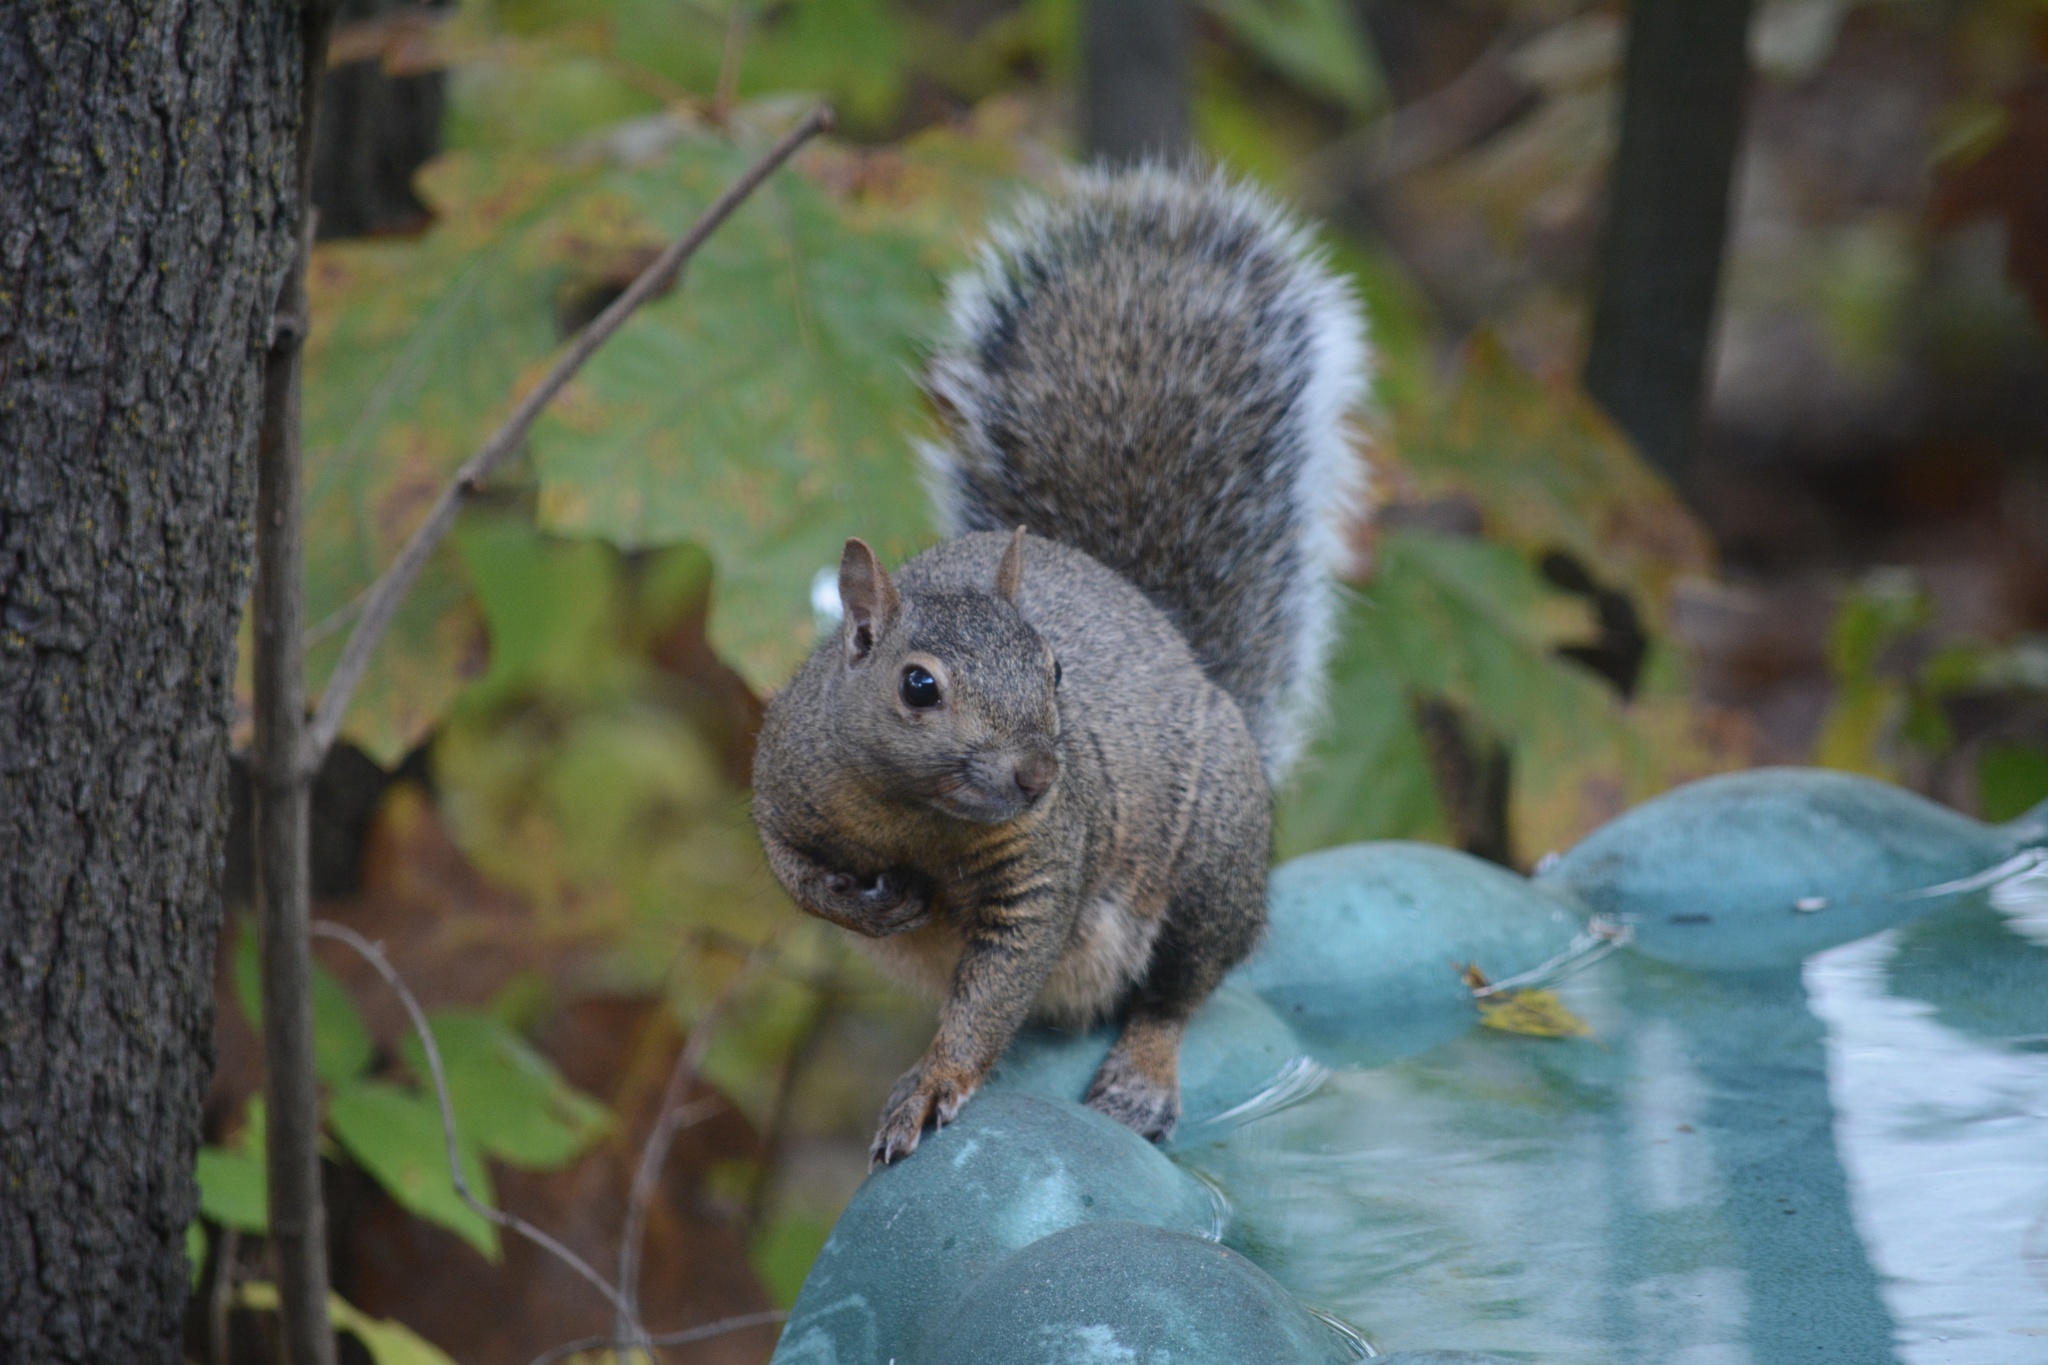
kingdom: Animalia
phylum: Chordata
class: Mammalia
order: Rodentia
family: Sciuridae
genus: Sciurus
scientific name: Sciurus carolinensis
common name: Eastern gray squirrel
